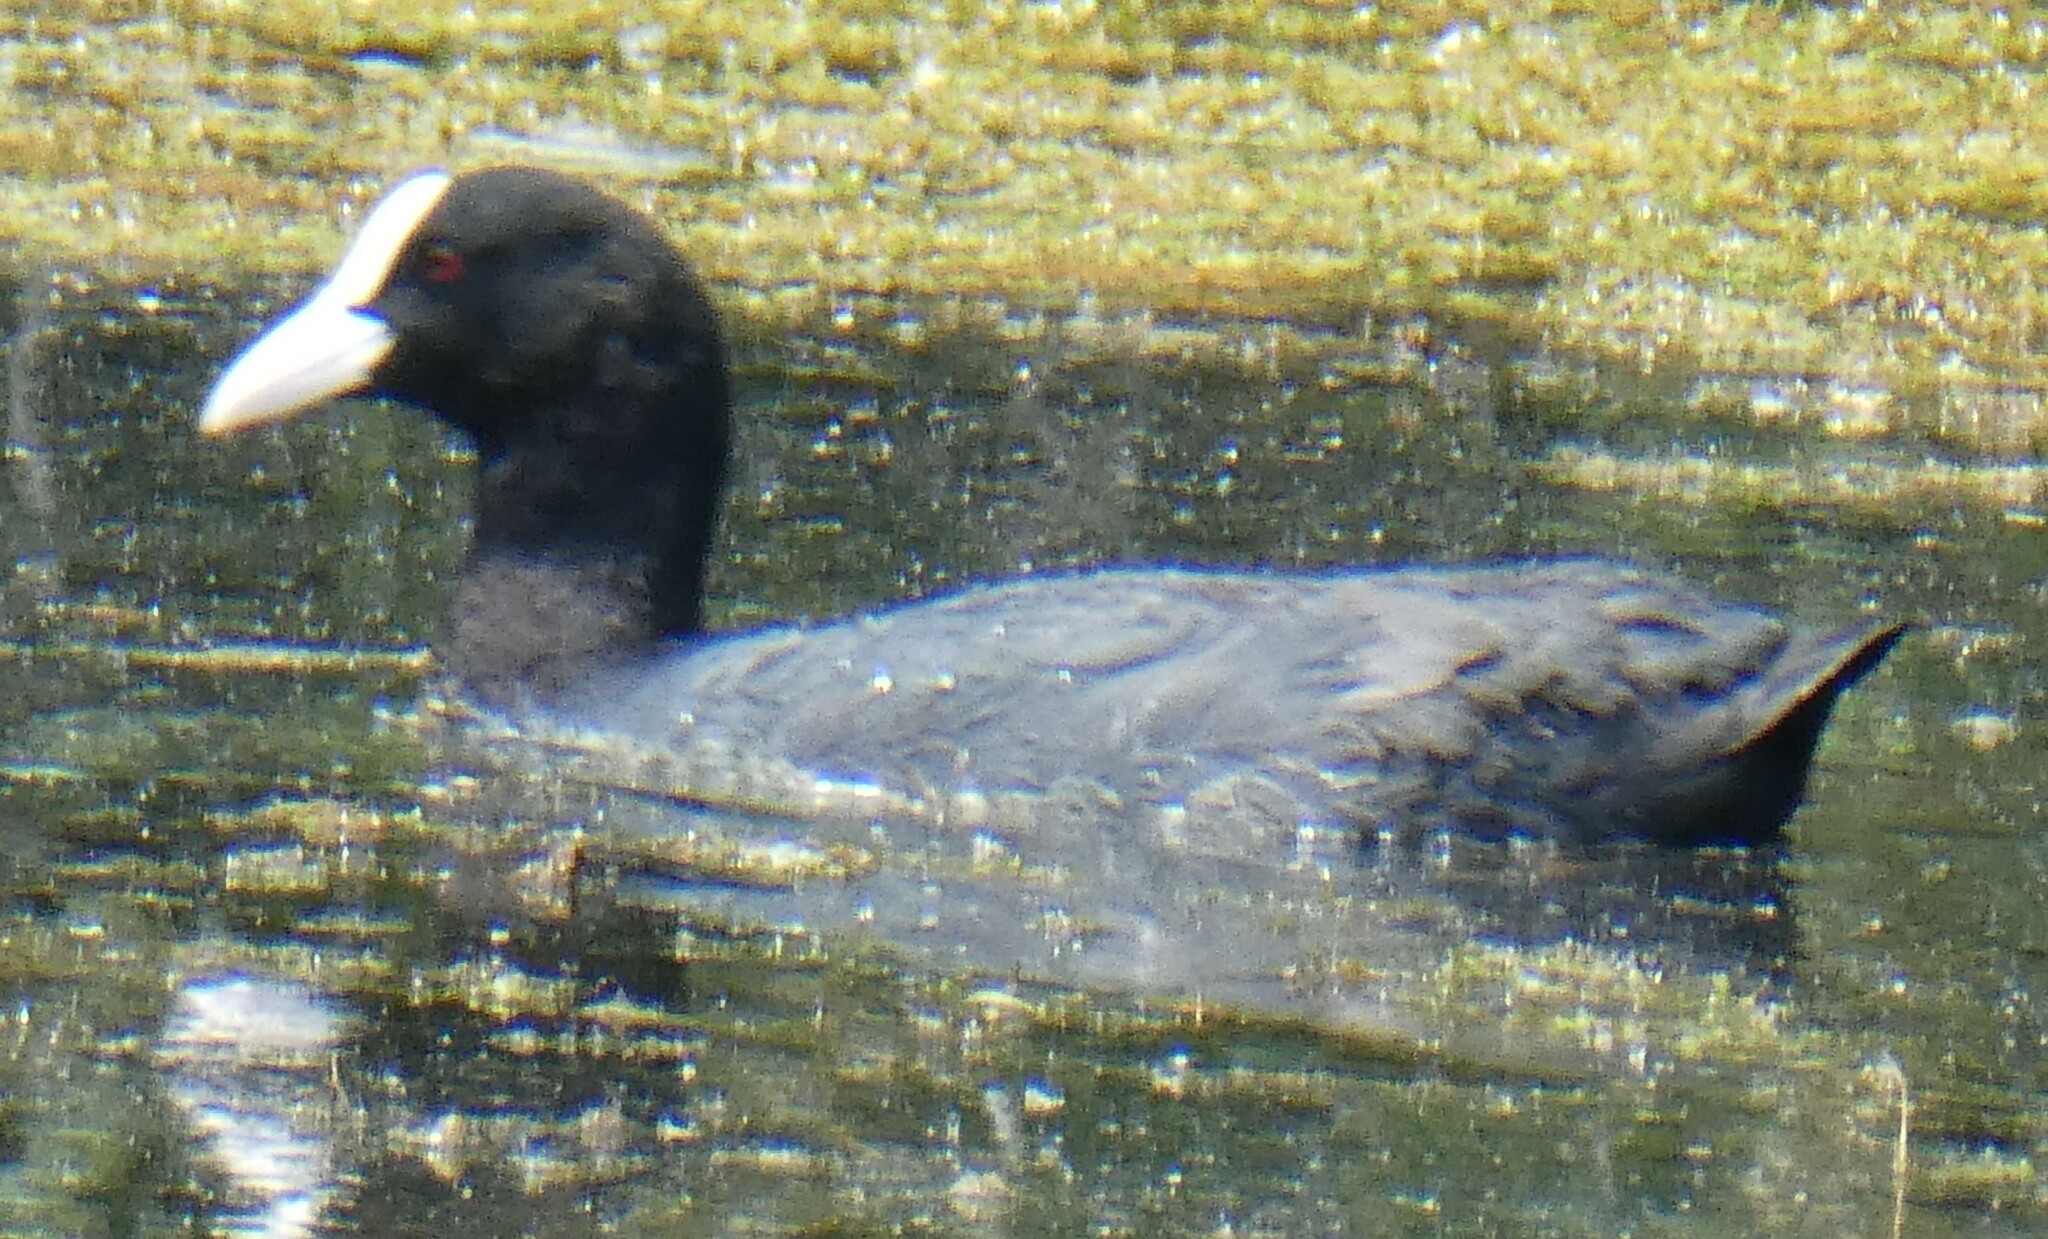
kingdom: Animalia
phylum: Chordata
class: Aves
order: Gruiformes
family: Rallidae
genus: Fulica
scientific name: Fulica atra
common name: Eurasian coot
